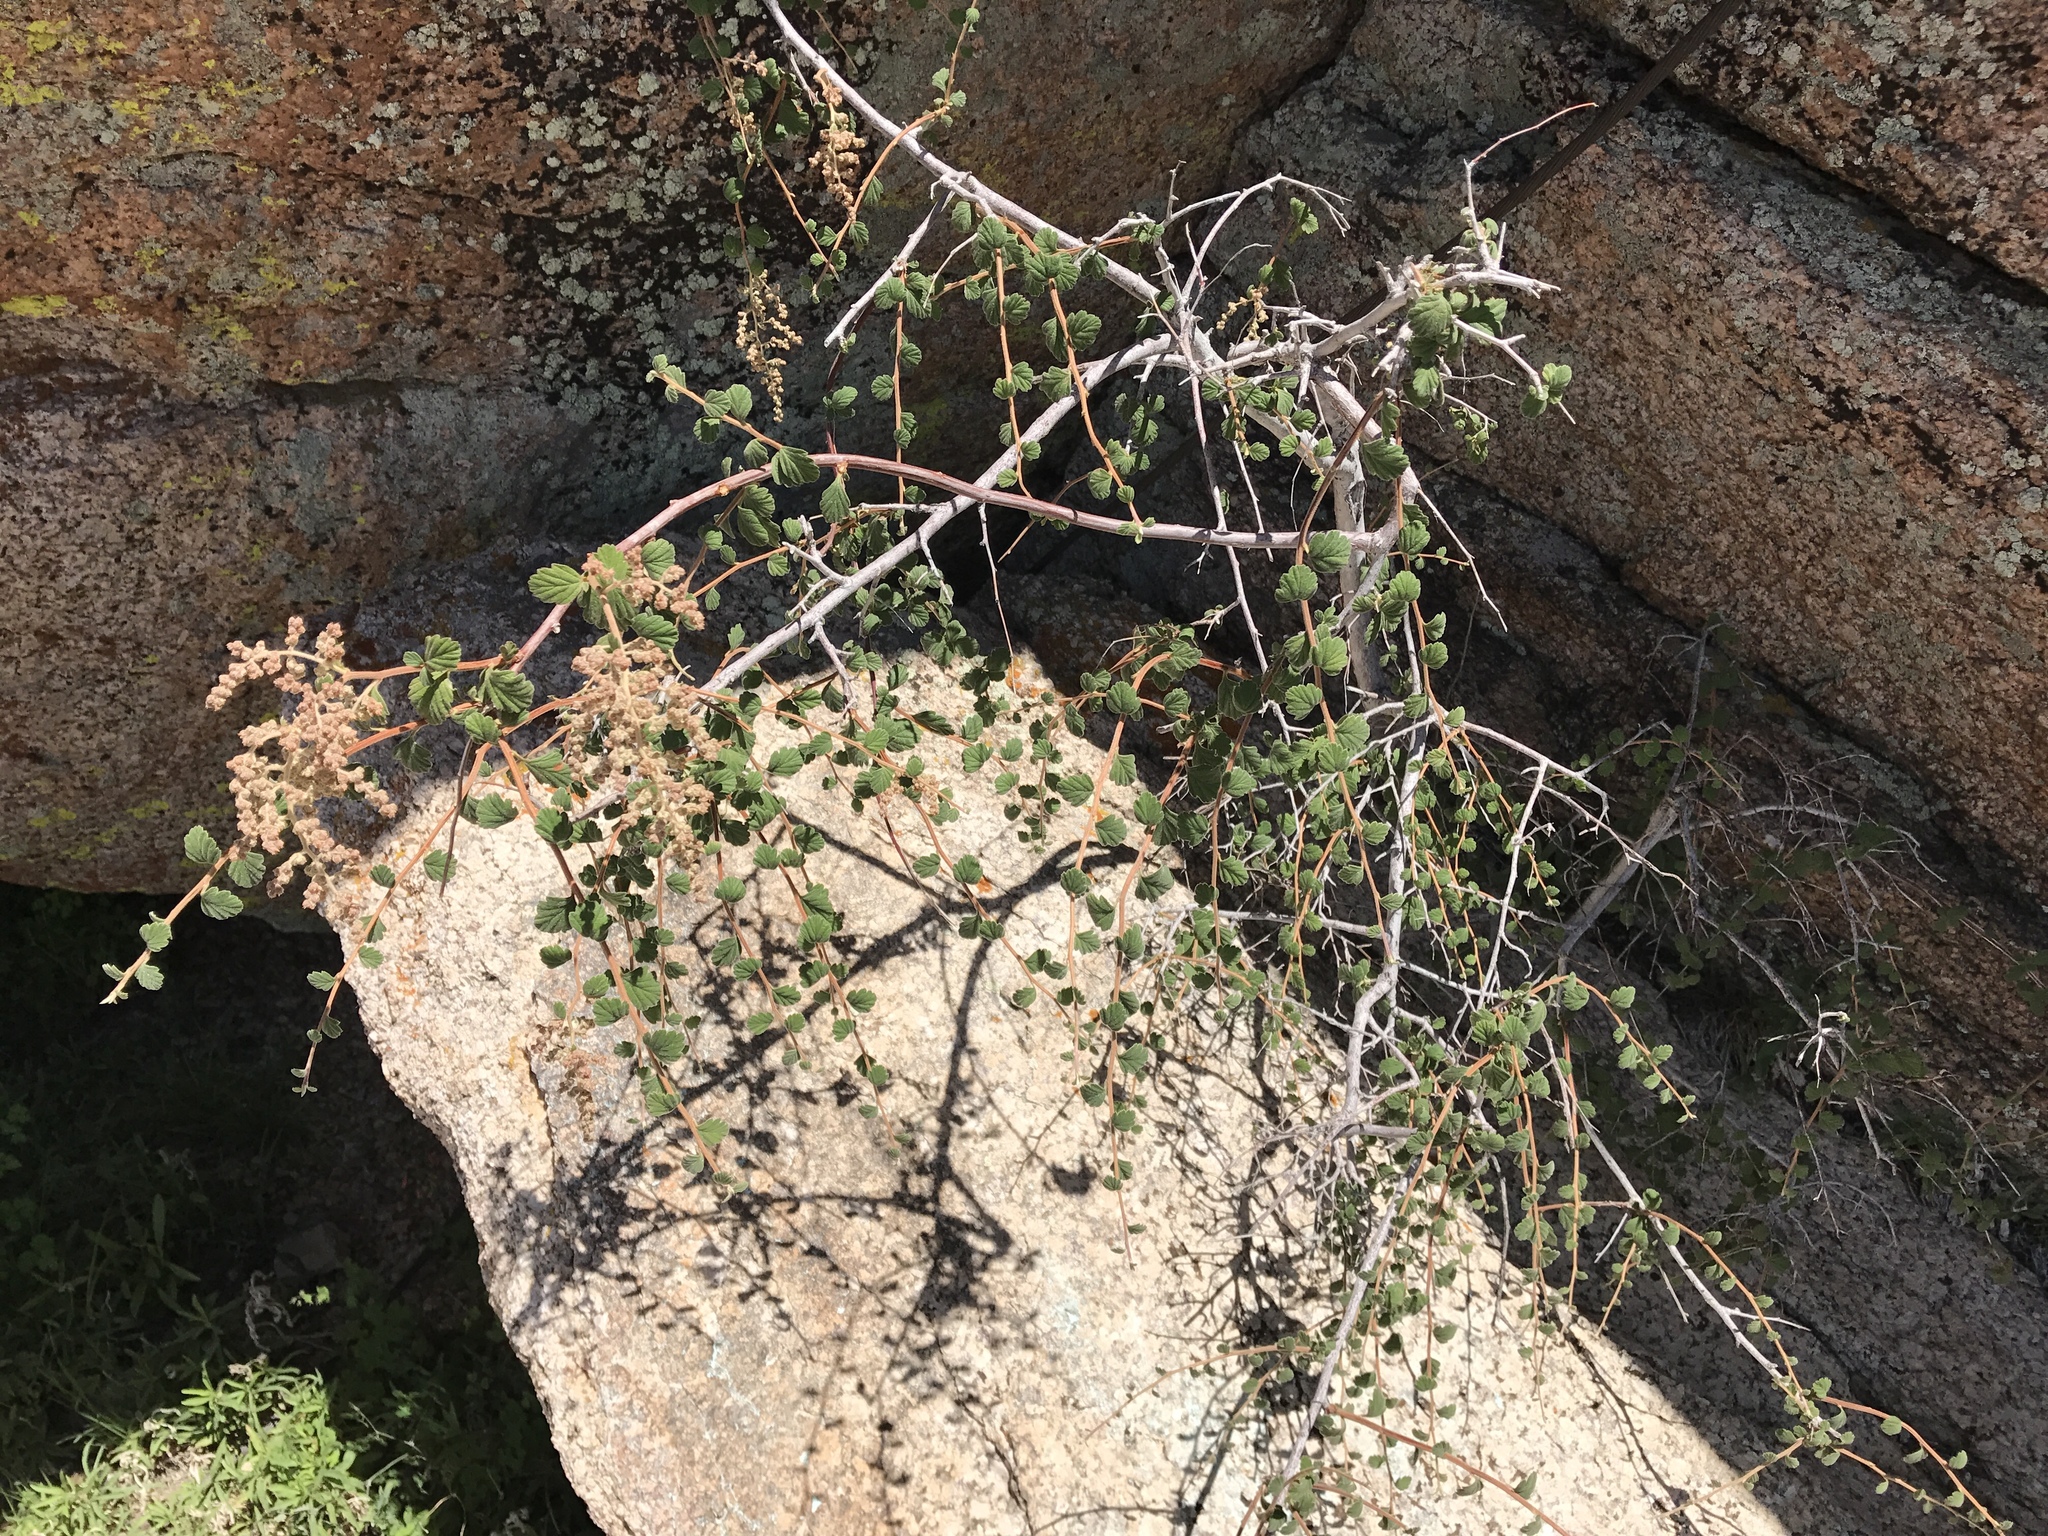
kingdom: Plantae
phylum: Tracheophyta
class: Magnoliopsida
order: Rosales
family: Rosaceae
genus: Holodiscus
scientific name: Holodiscus discolor
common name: Oceanspray
